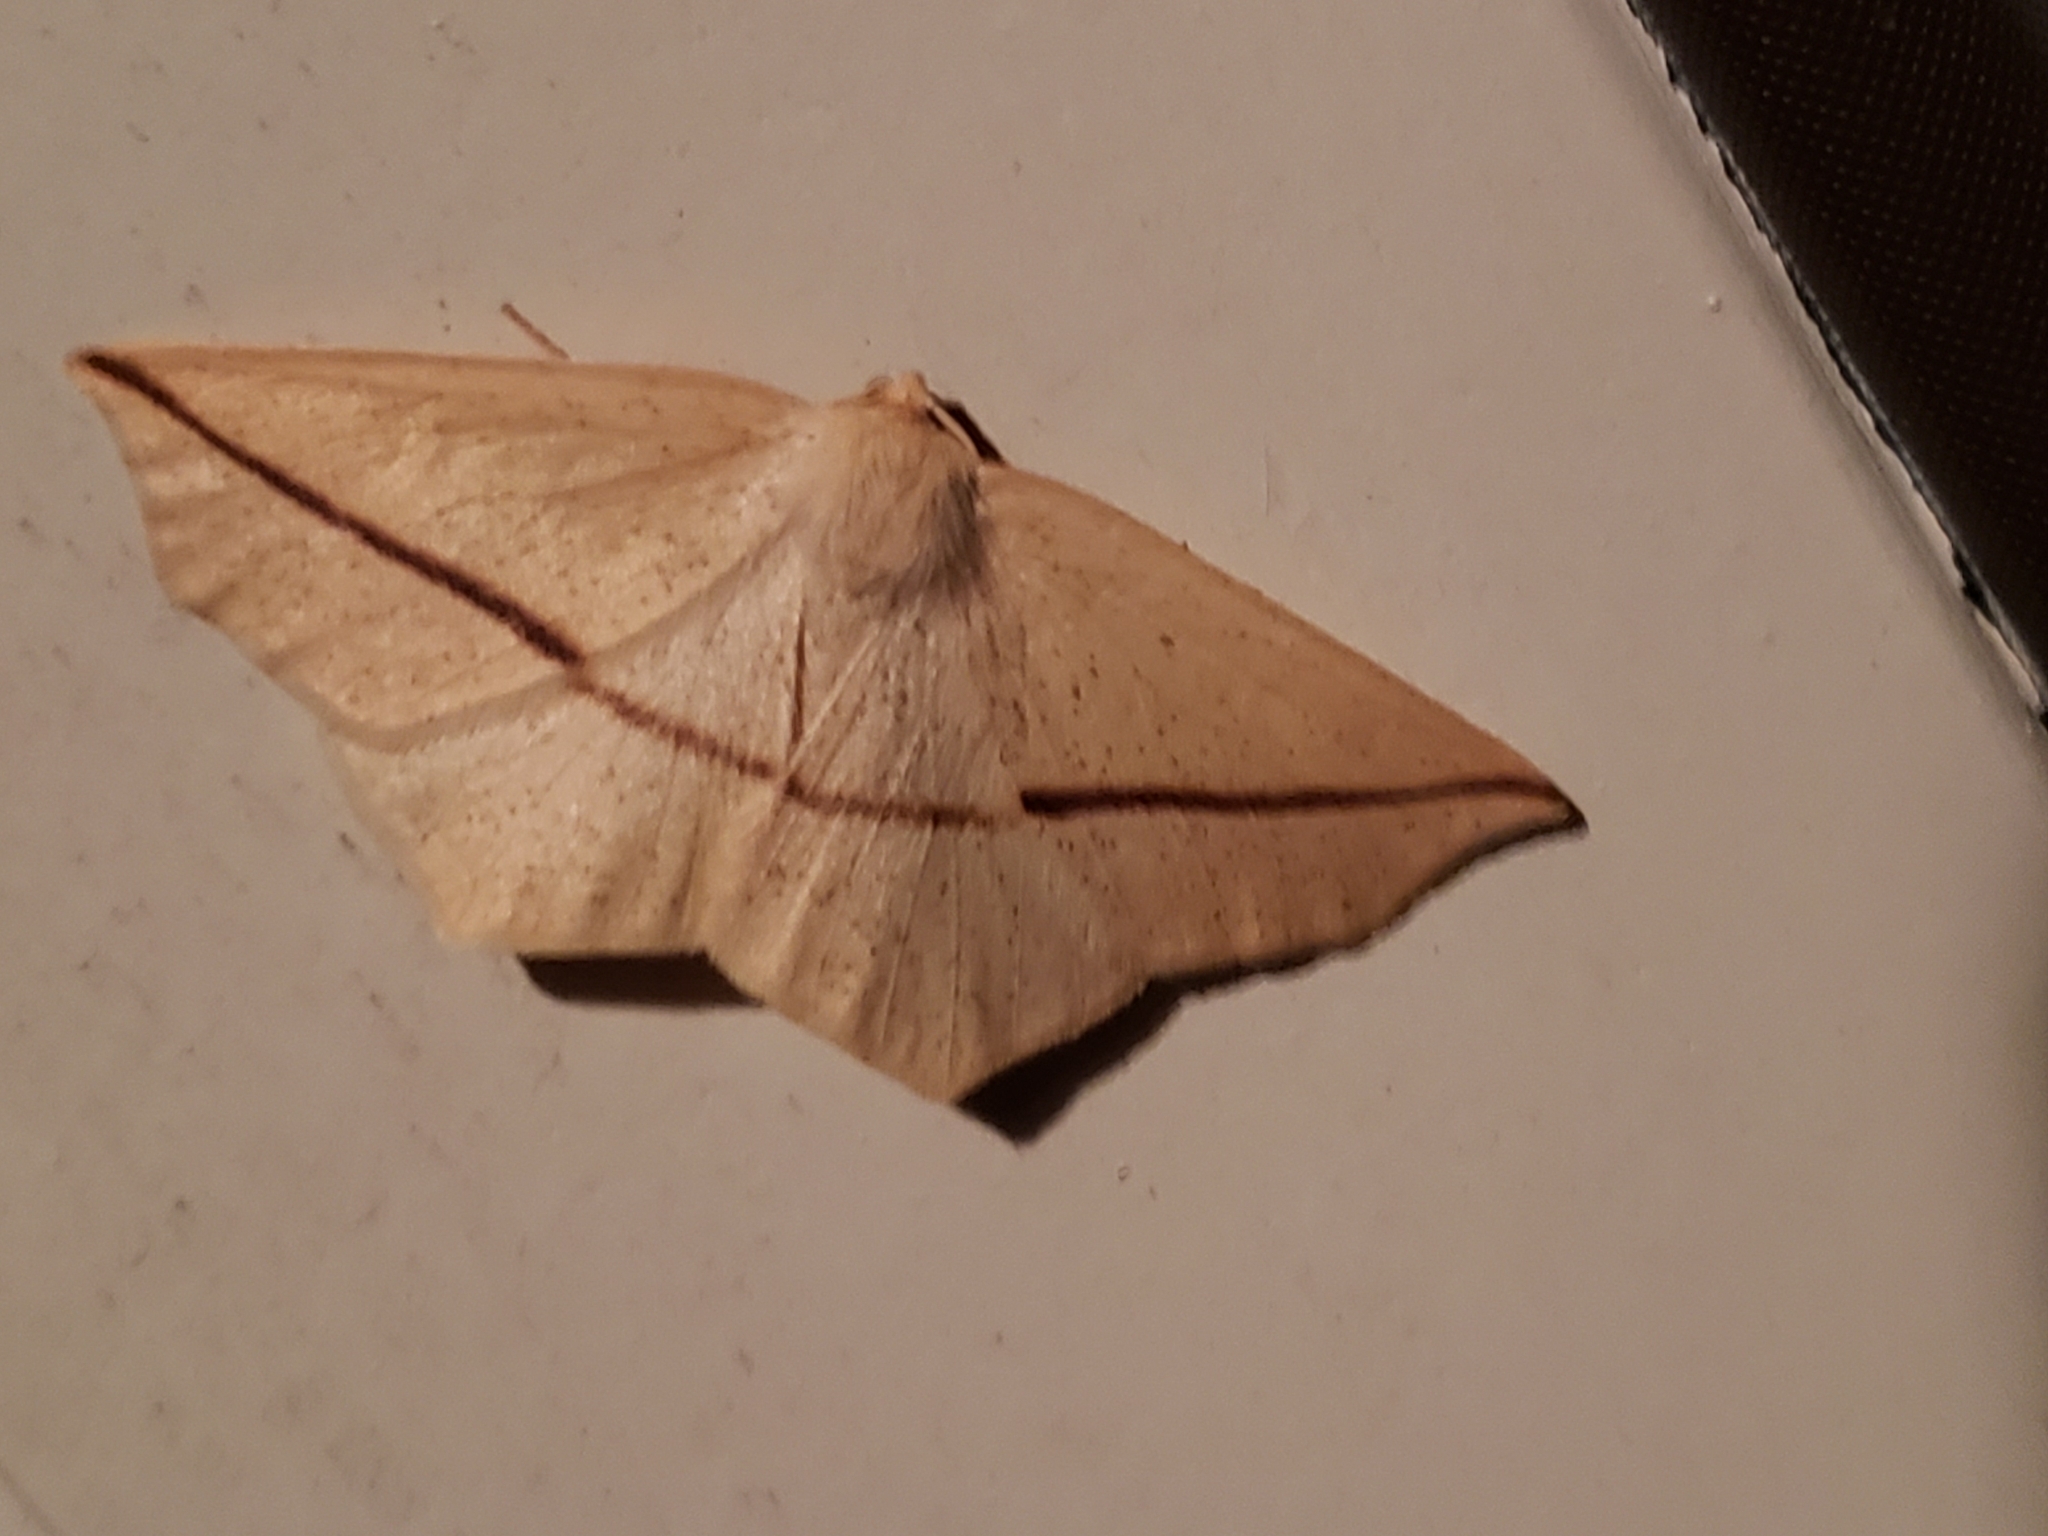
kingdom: Animalia
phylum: Arthropoda
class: Insecta
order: Lepidoptera
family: Geometridae
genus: Tetracis
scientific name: Tetracis crocallata
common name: Yellow slant-line
